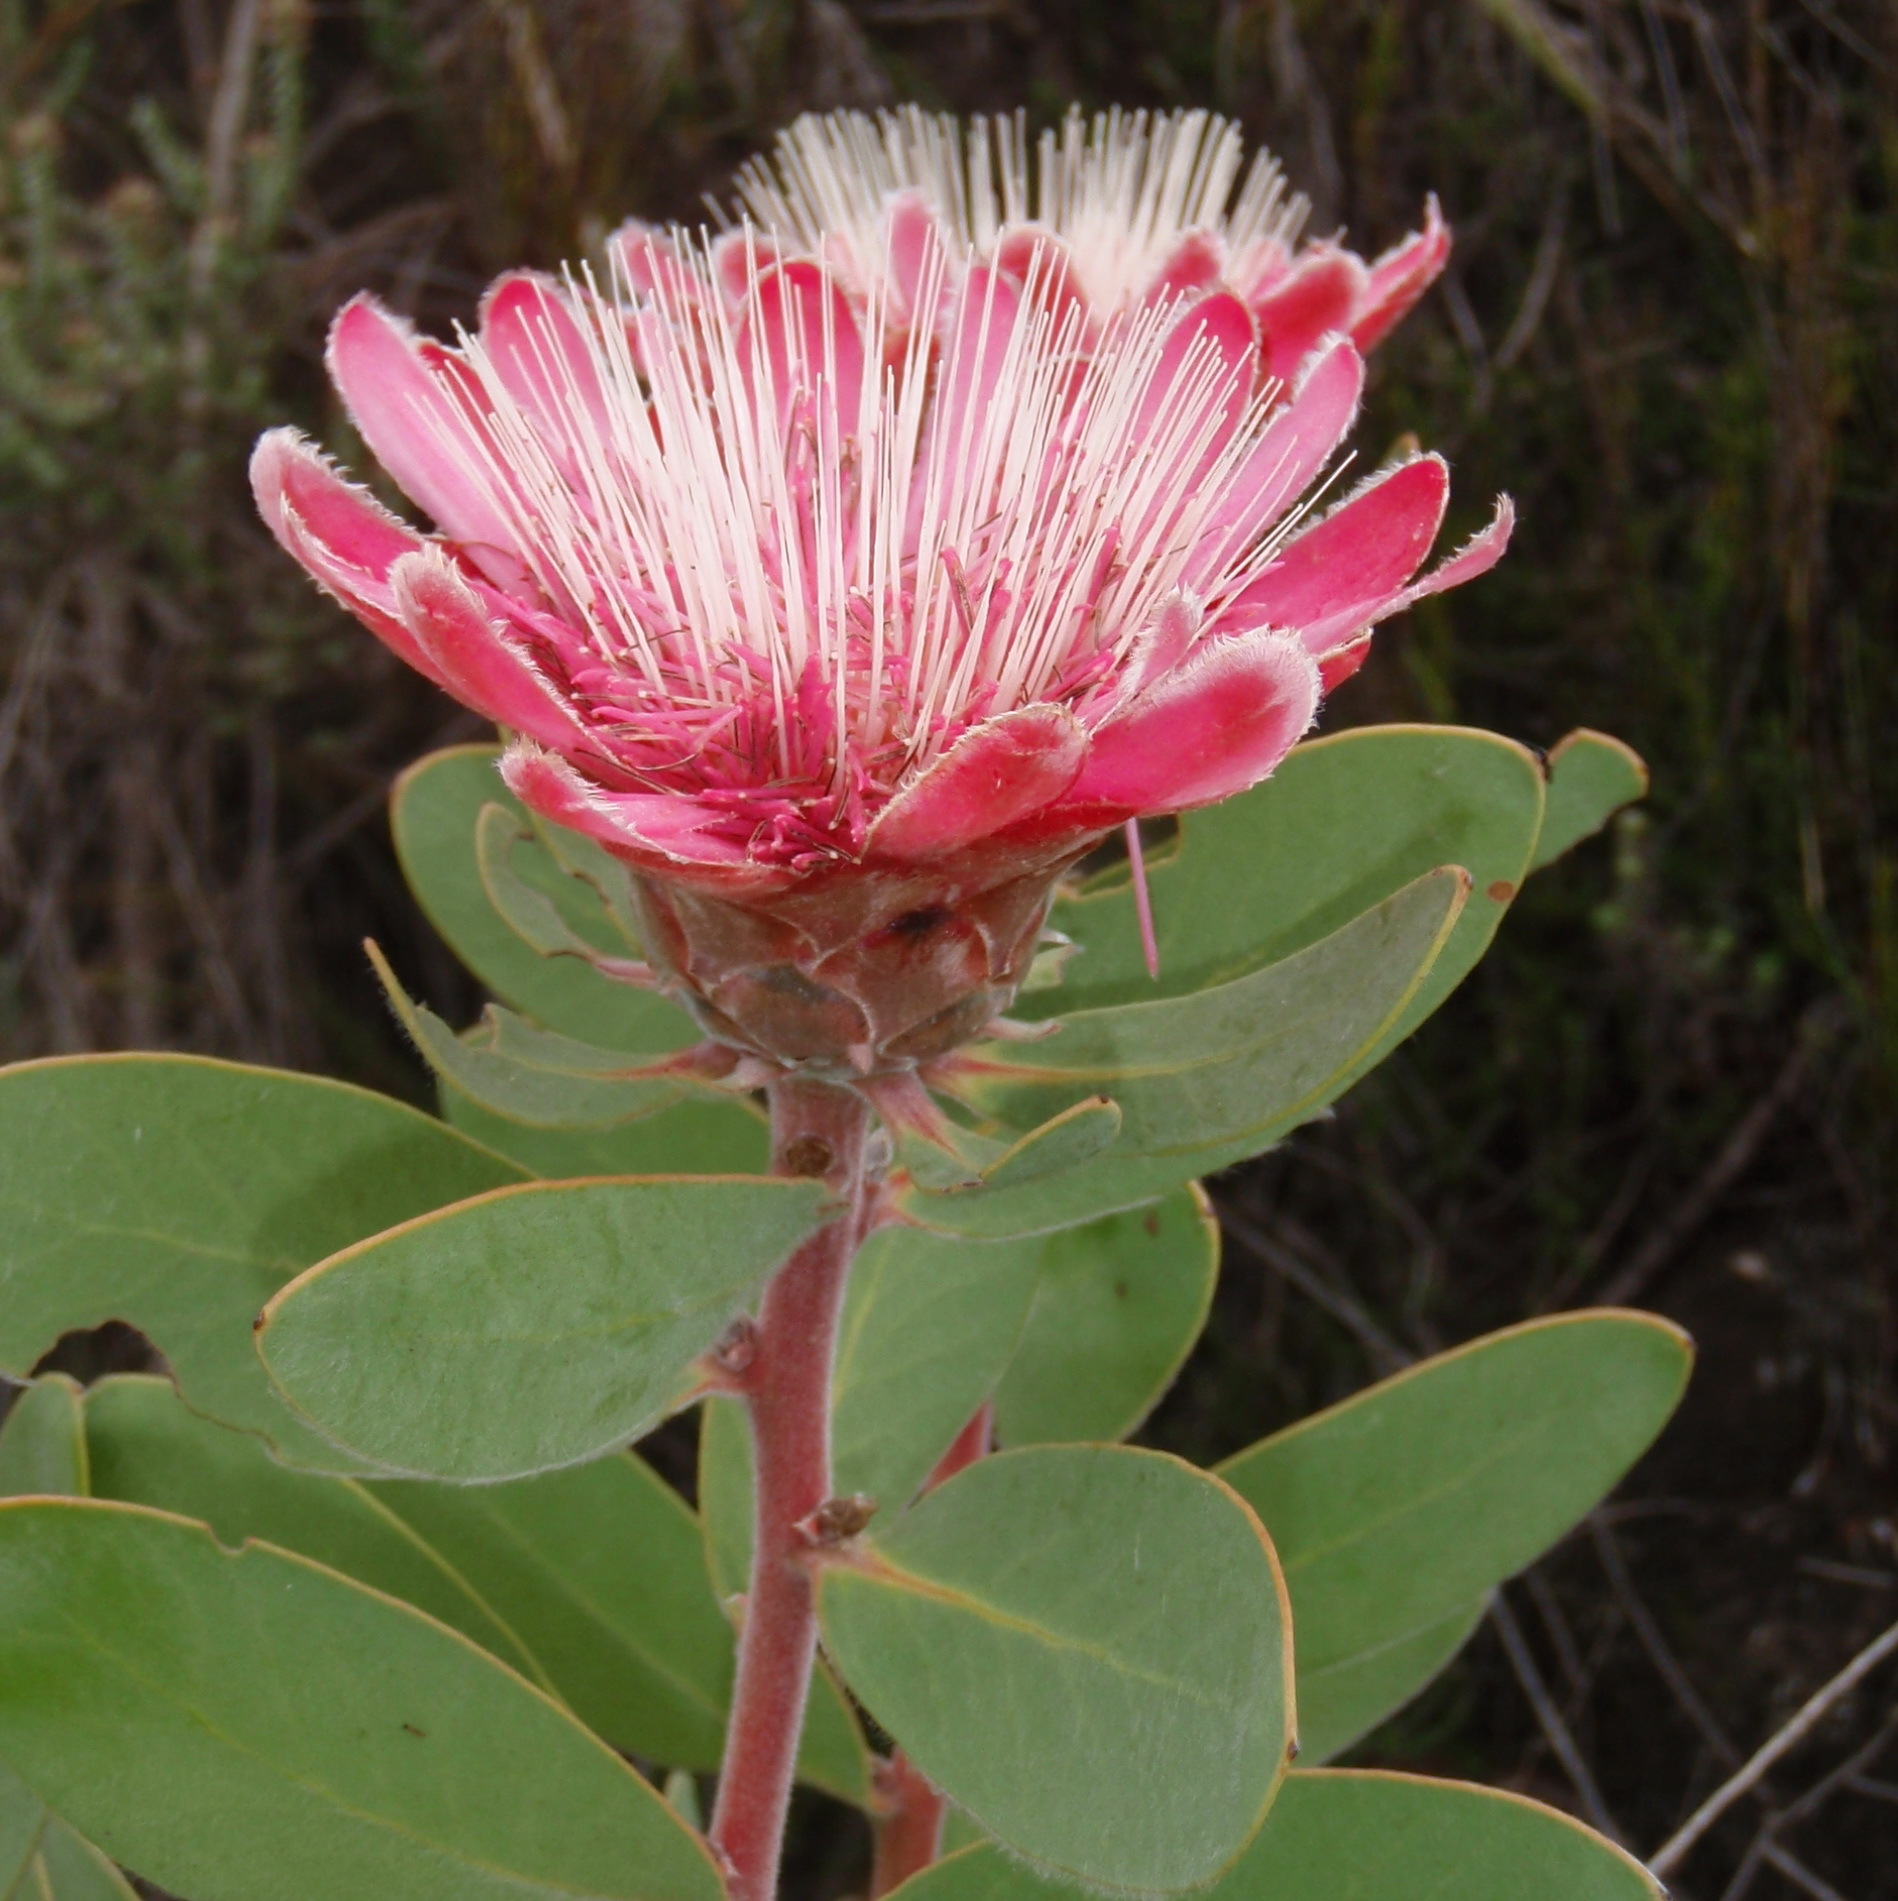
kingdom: Plantae
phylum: Tracheophyta
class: Magnoliopsida
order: Proteales
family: Proteaceae
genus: Protea
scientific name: Protea punctata
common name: Water sugarbush
